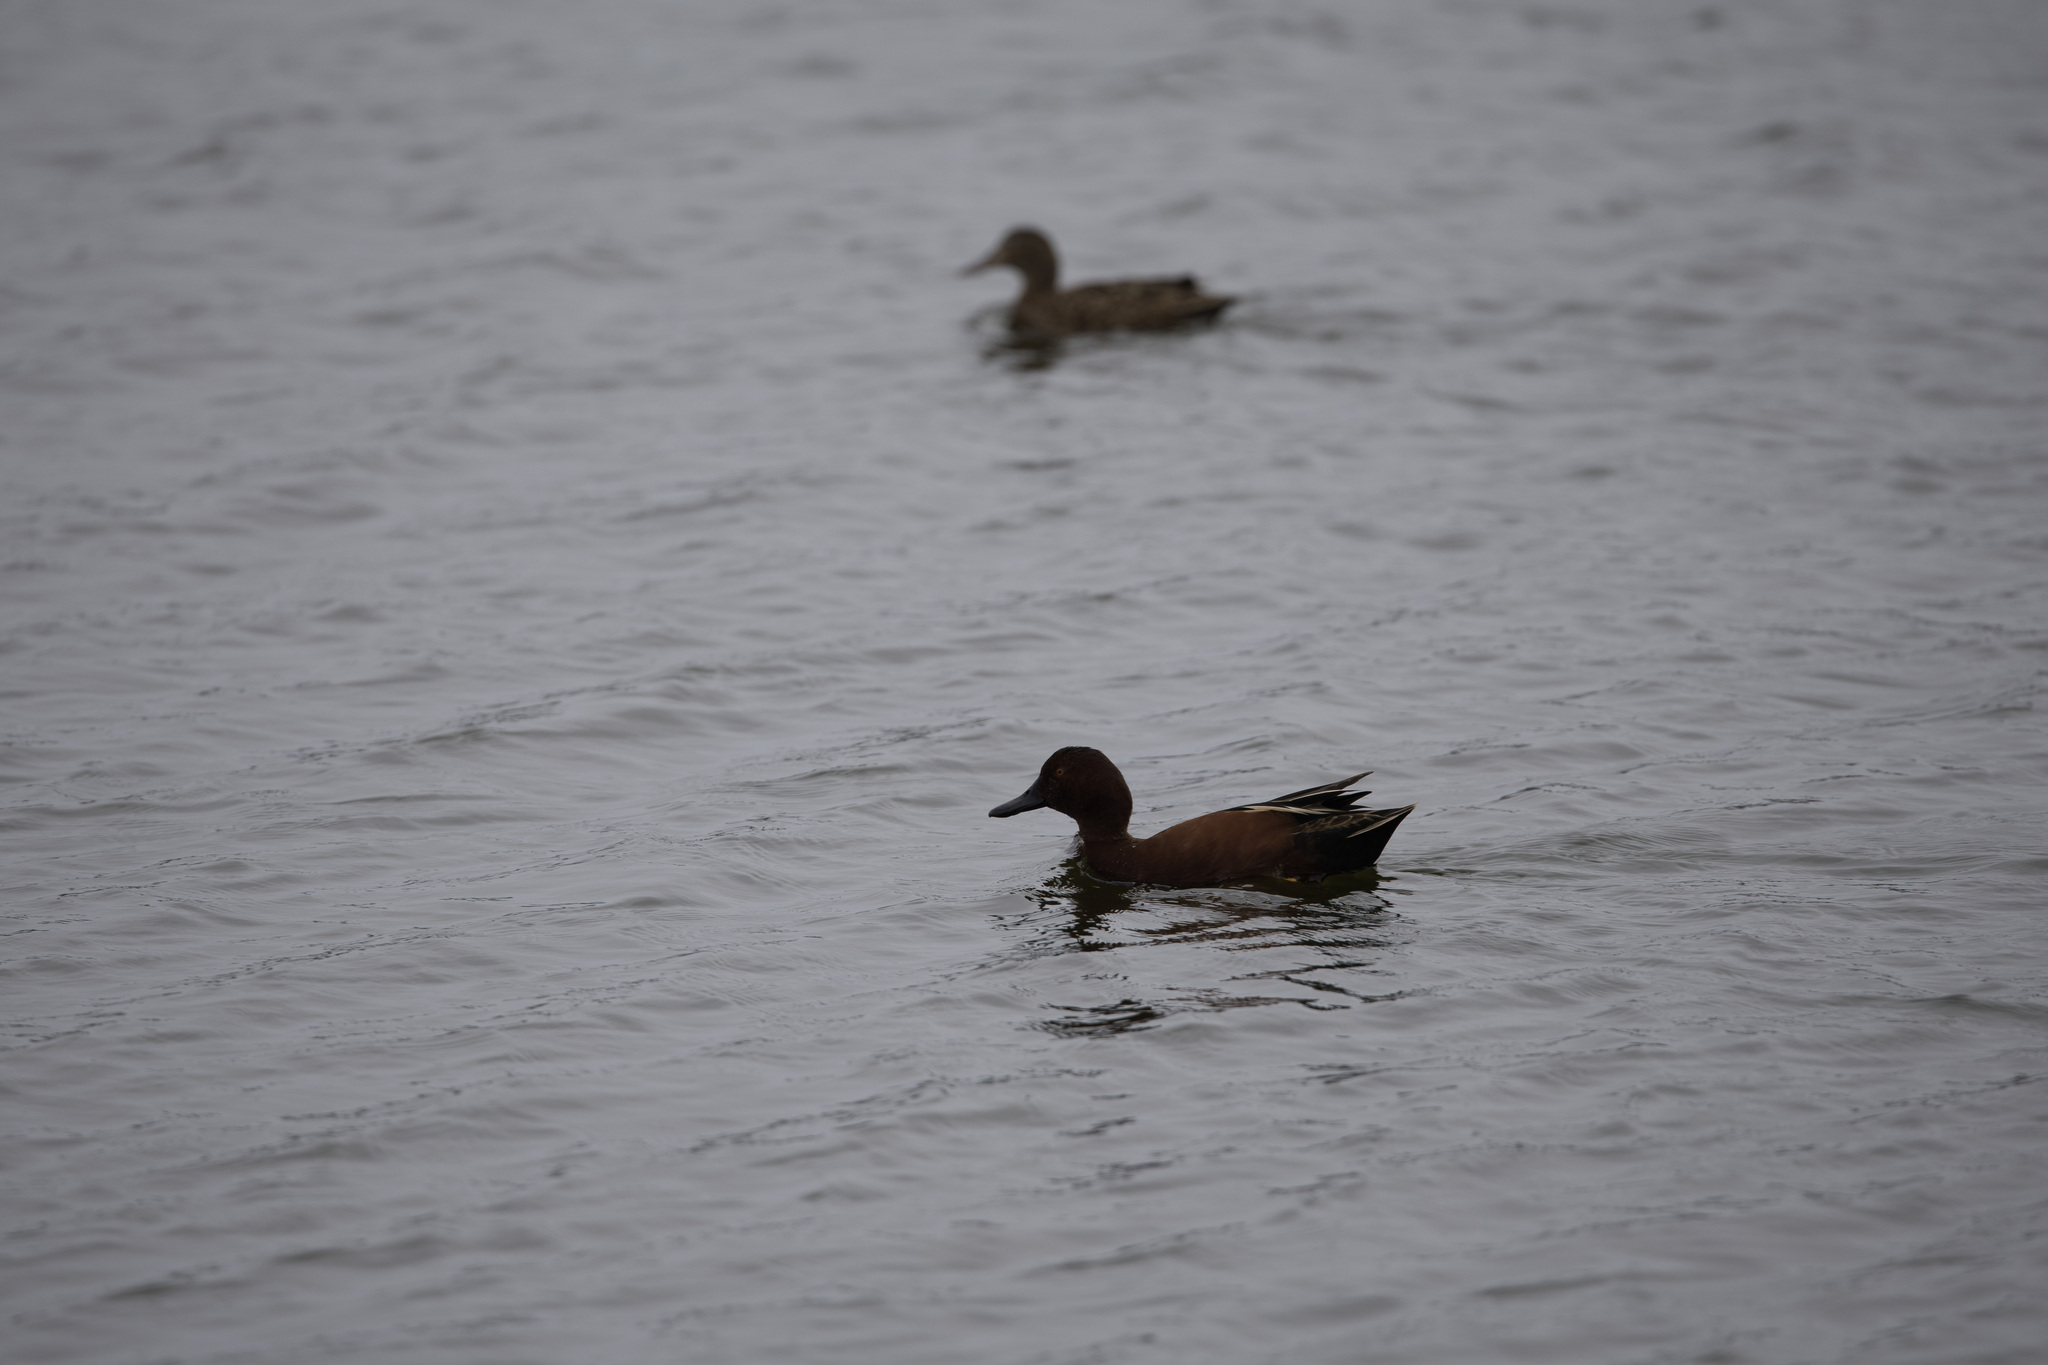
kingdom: Animalia
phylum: Chordata
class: Aves
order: Anseriformes
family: Anatidae
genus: Spatula
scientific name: Spatula cyanoptera
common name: Cinnamon teal
